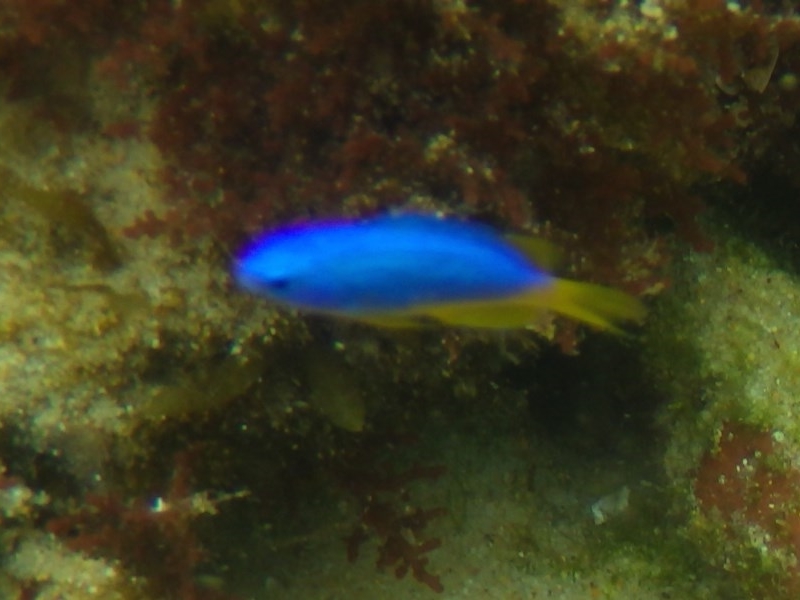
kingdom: Animalia
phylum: Chordata
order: Perciformes
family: Pomacentridae
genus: Pomacentrus
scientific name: Pomacentrus coelestis
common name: Neon damsel
